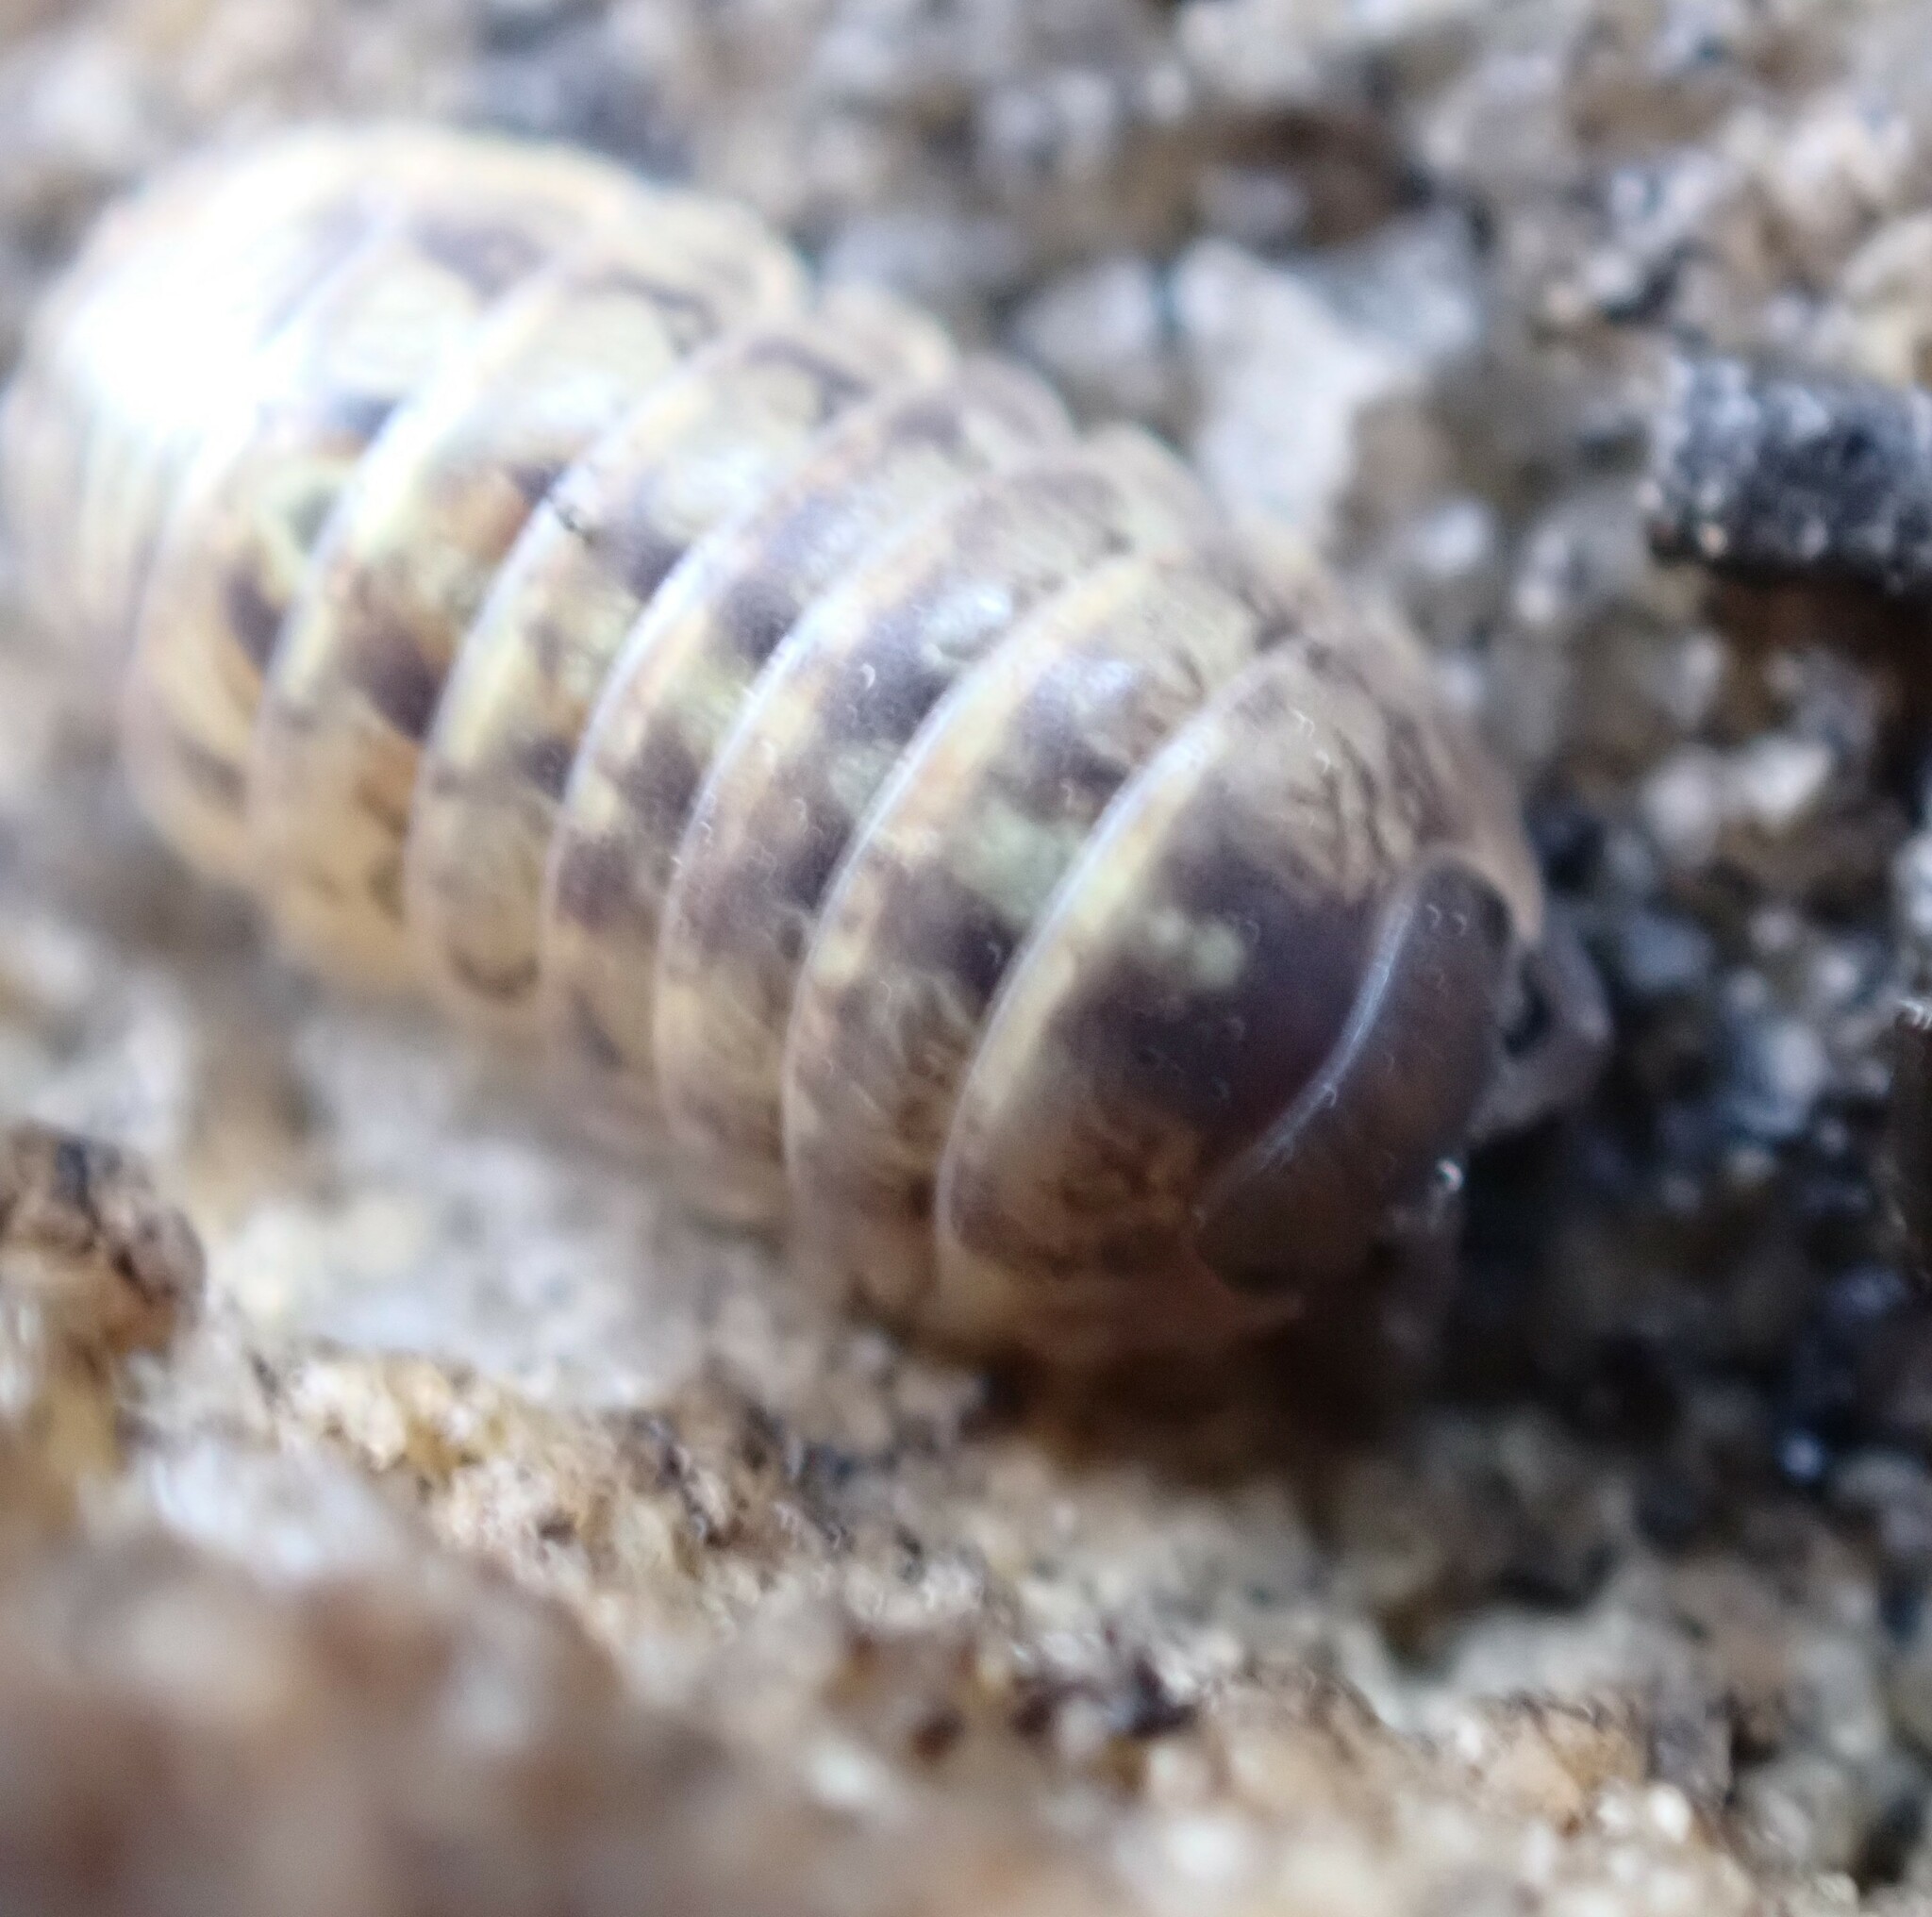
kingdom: Animalia
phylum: Arthropoda
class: Malacostraca
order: Isopoda
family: Armadillidiidae
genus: Armadillidium
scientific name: Armadillidium vulgare
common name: Common pill woodlouse
